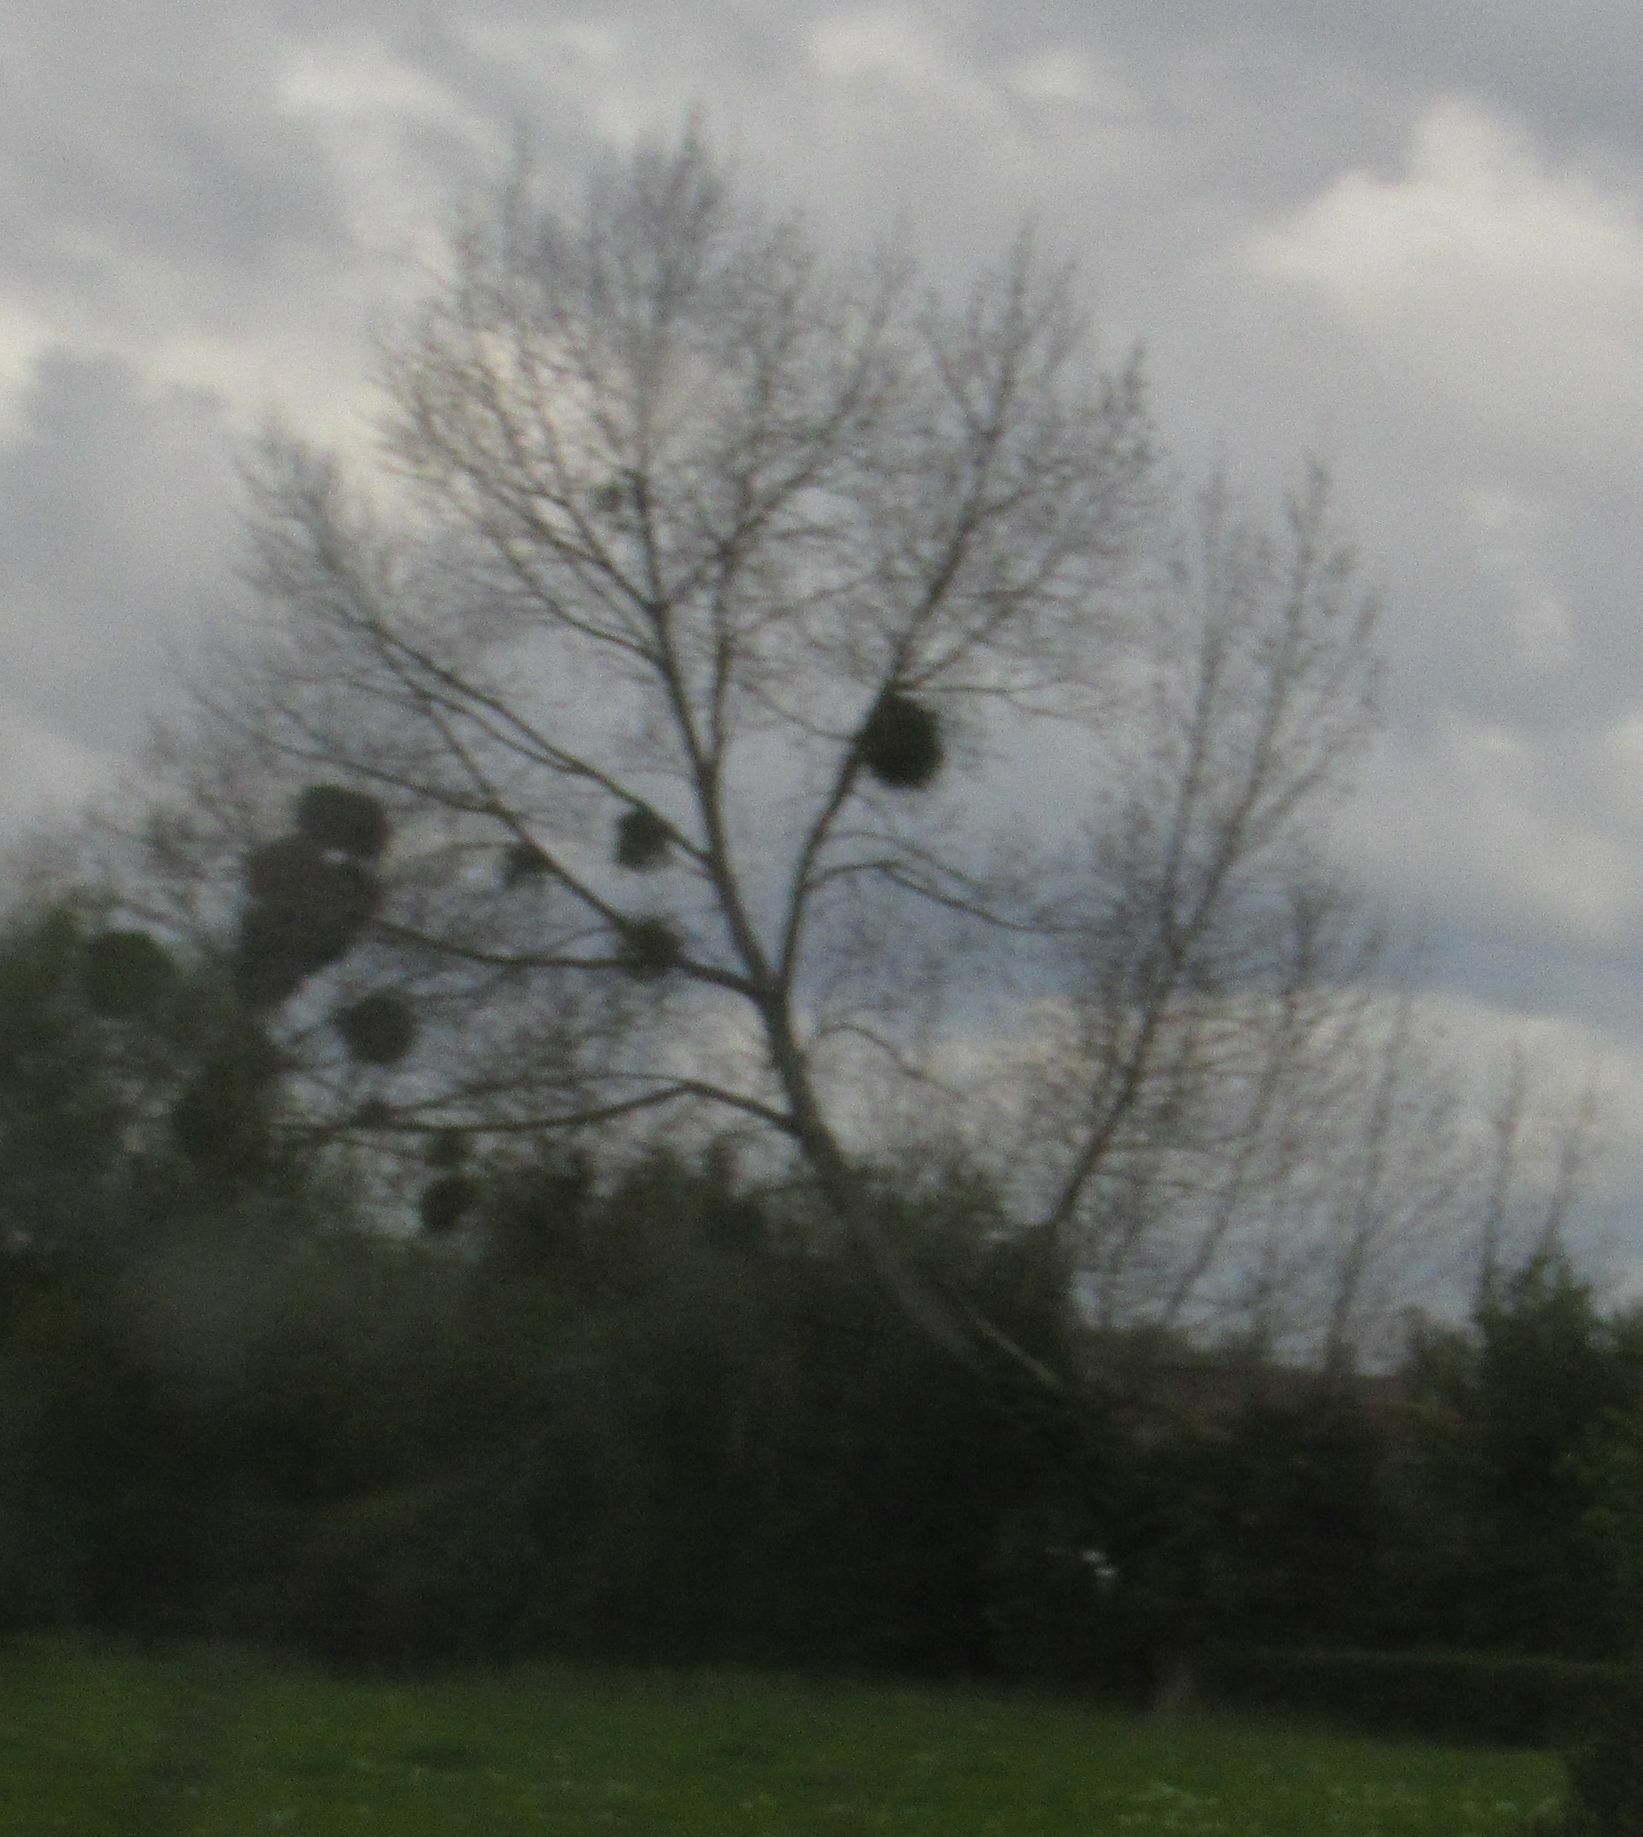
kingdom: Plantae
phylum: Tracheophyta
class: Magnoliopsida
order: Santalales
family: Viscaceae
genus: Viscum
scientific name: Viscum album
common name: Mistletoe
